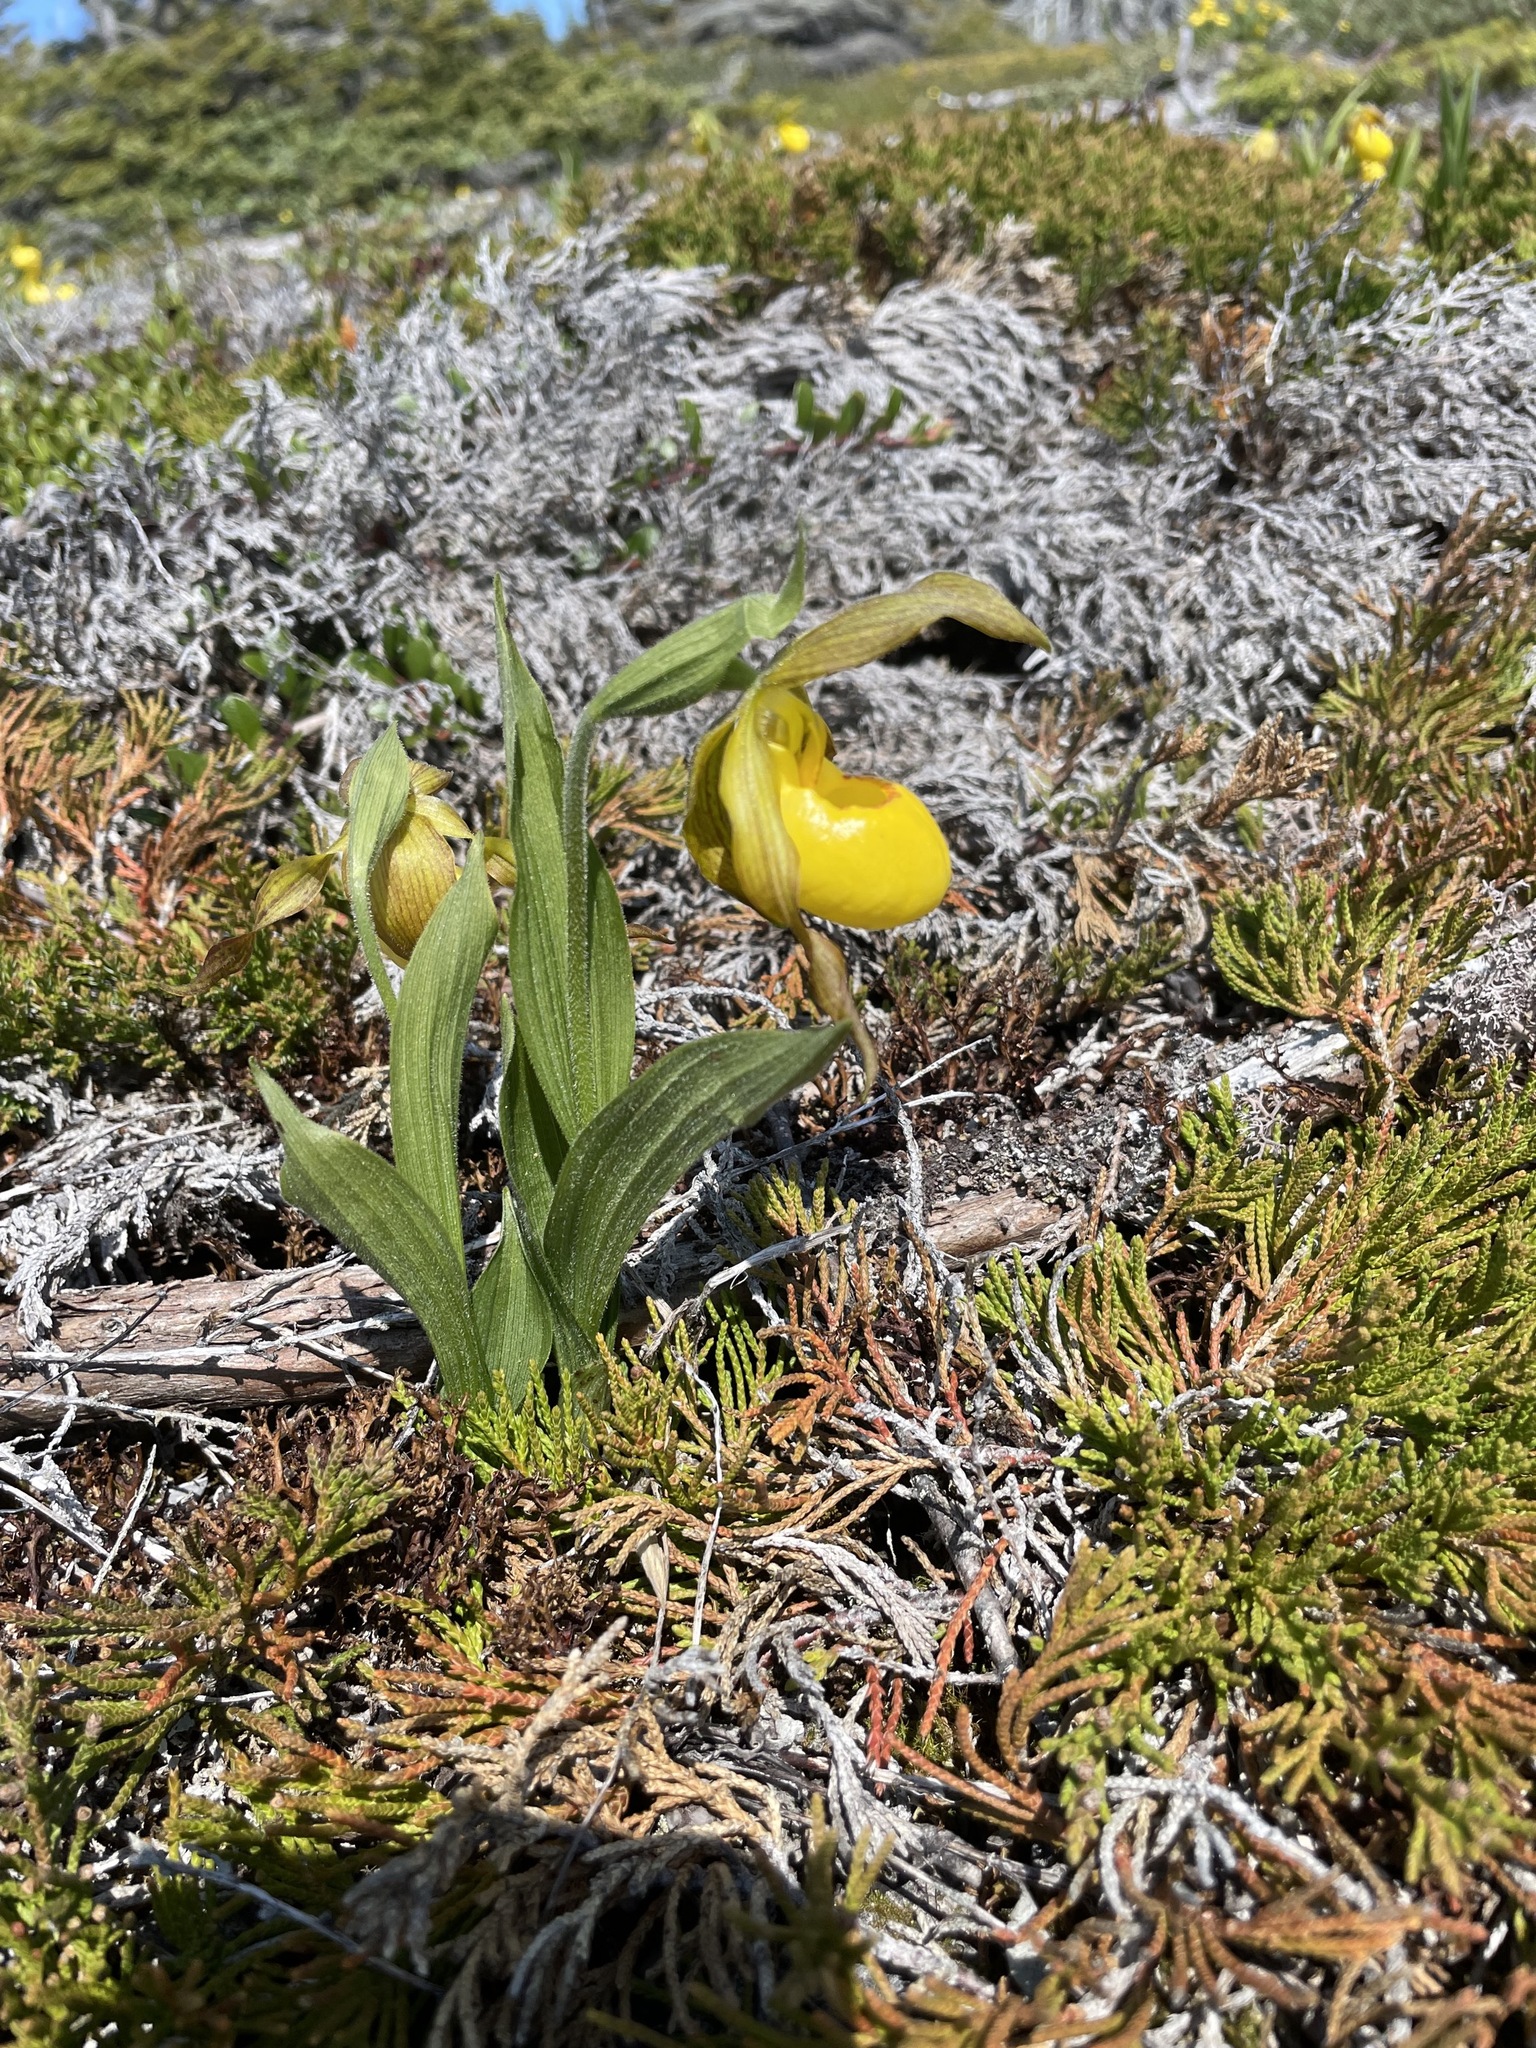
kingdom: Plantae
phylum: Tracheophyta
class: Liliopsida
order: Asparagales
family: Orchidaceae
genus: Cypripedium
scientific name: Cypripedium parviflorum
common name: American yellow lady's-slipper
